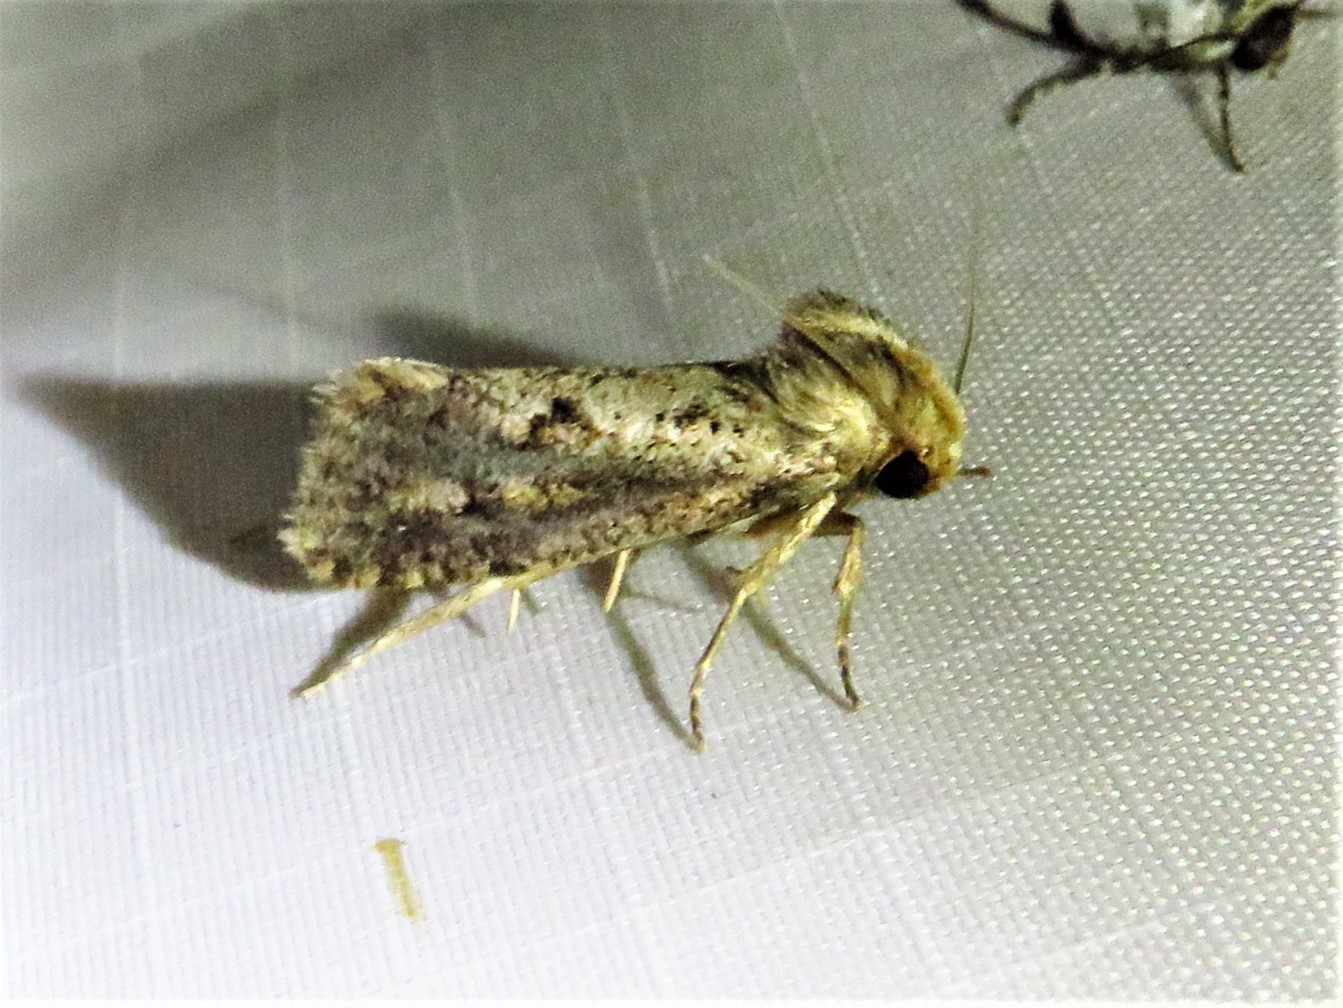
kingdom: Animalia
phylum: Arthropoda
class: Insecta
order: Lepidoptera
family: Tineidae
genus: Acrolophus
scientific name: Acrolophus popeanella
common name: Clemens' grass tubeworm moth
